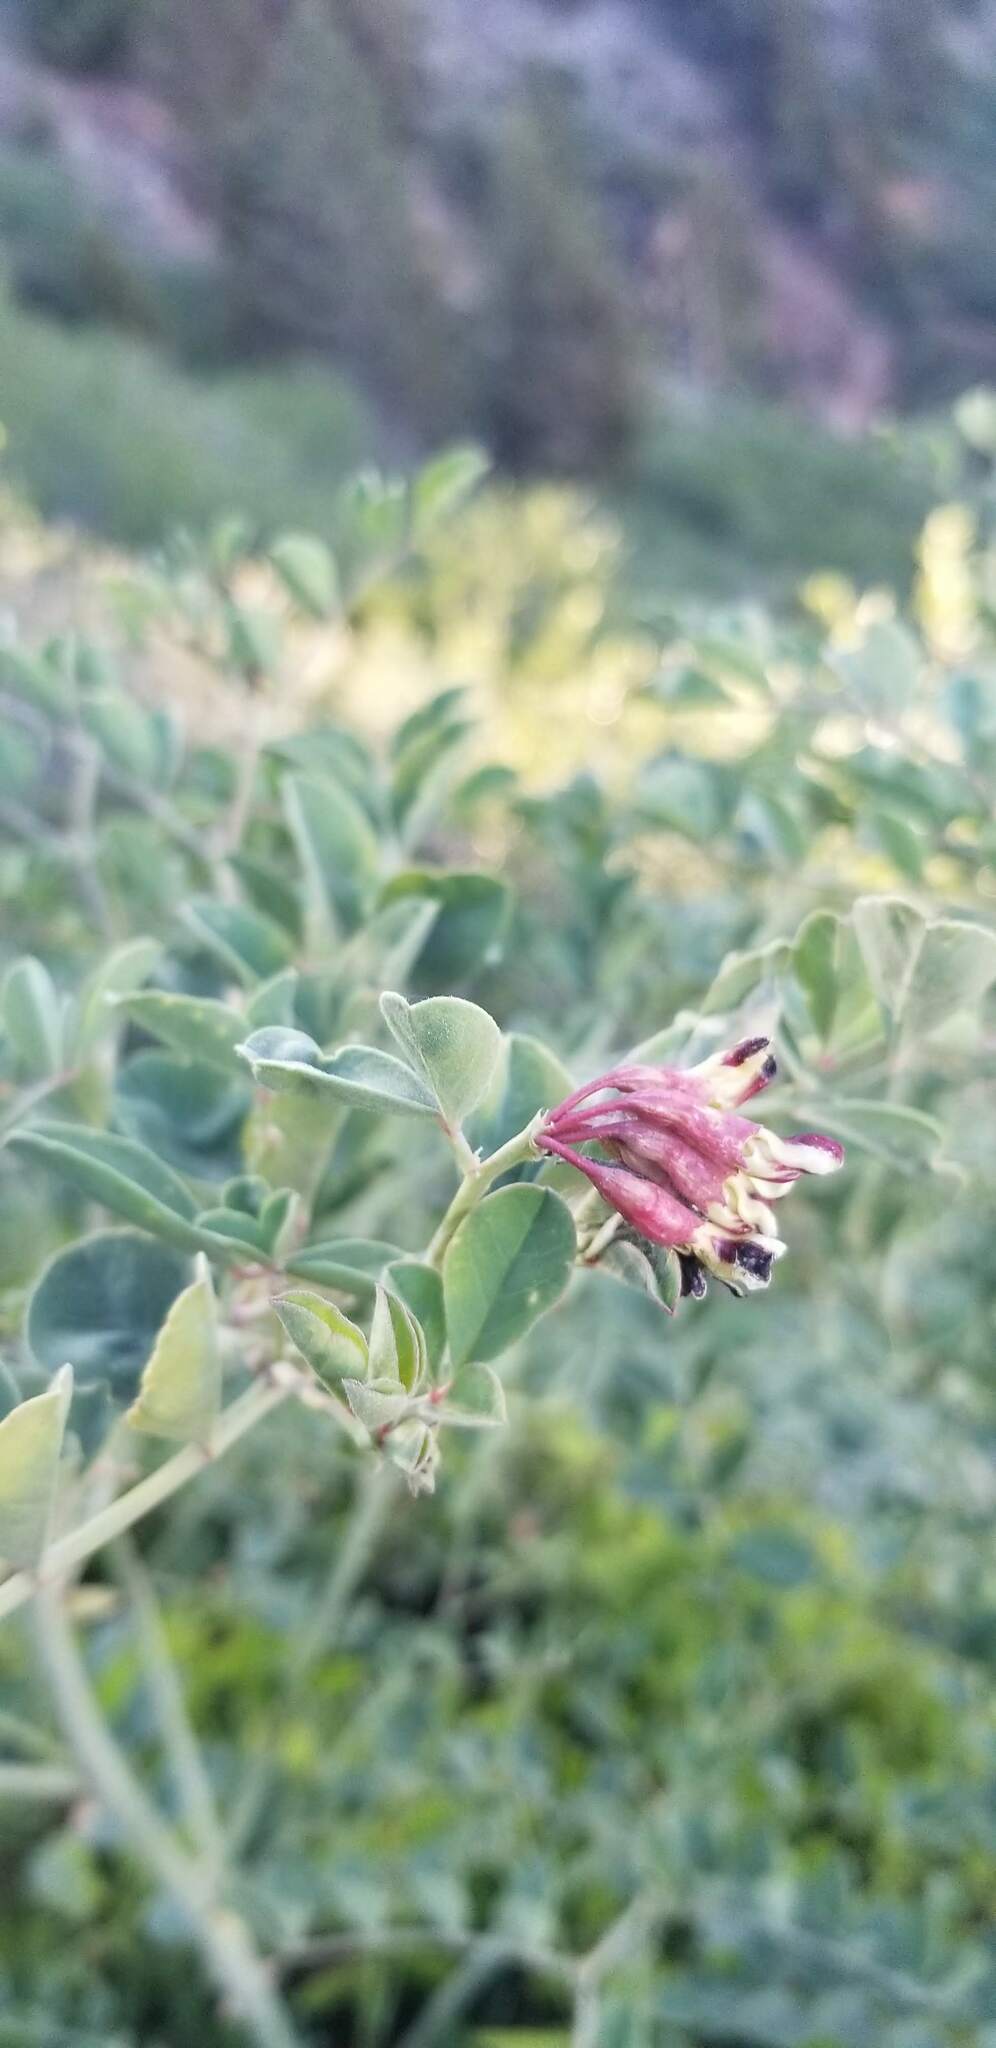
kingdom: Plantae
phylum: Tracheophyta
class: Magnoliopsida
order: Fabales
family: Fabaceae
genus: Hosackia
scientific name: Hosackia crassifolia
